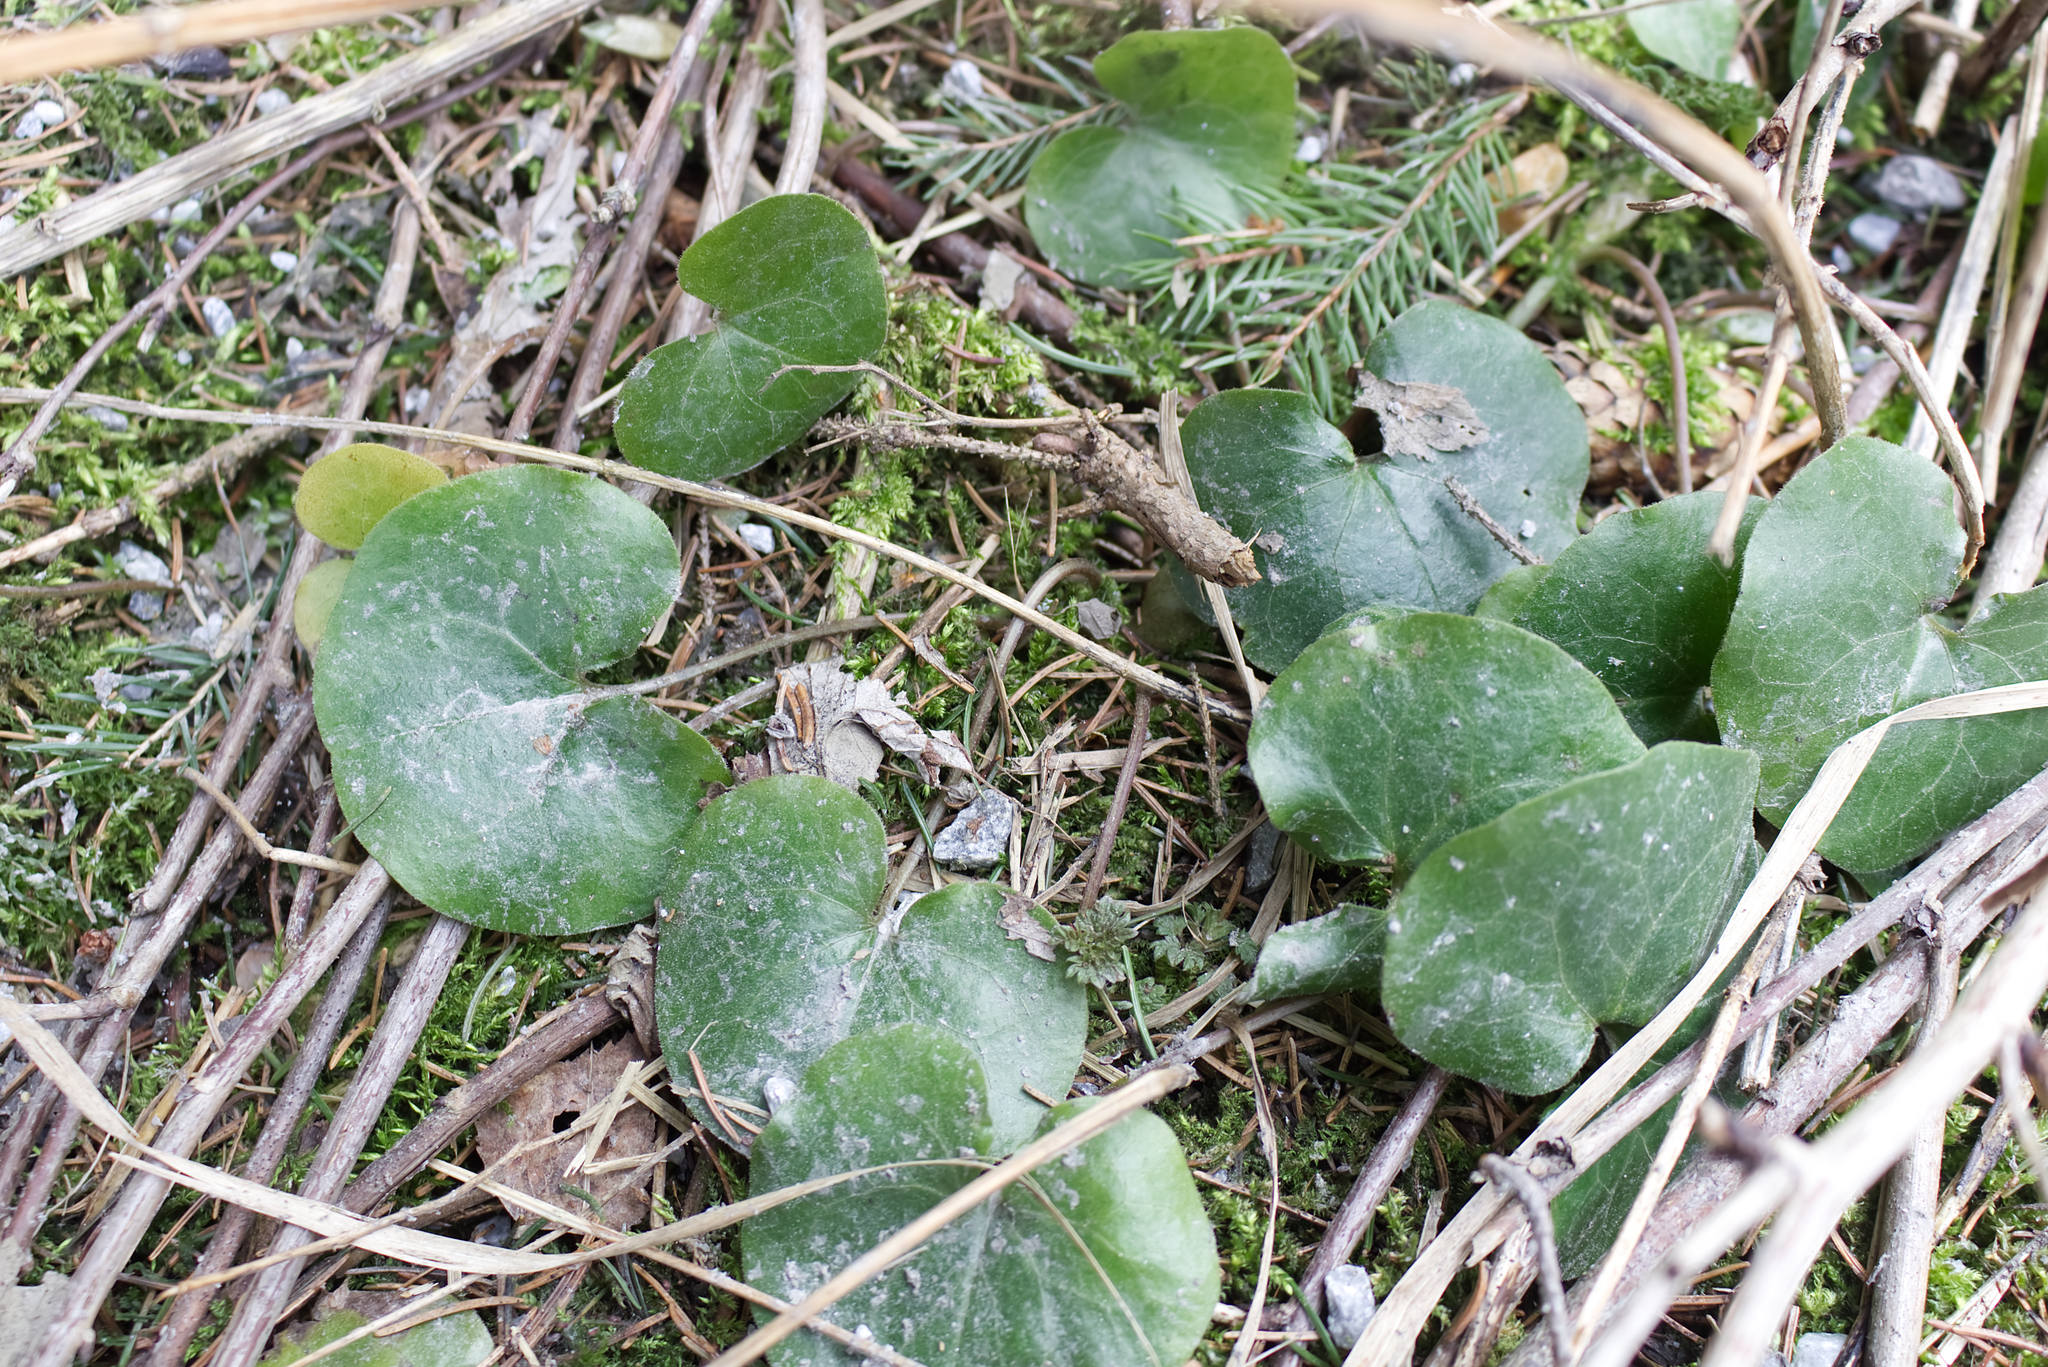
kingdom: Plantae
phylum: Tracheophyta
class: Magnoliopsida
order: Piperales
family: Aristolochiaceae
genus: Asarum
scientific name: Asarum europaeum
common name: Asarabacca
